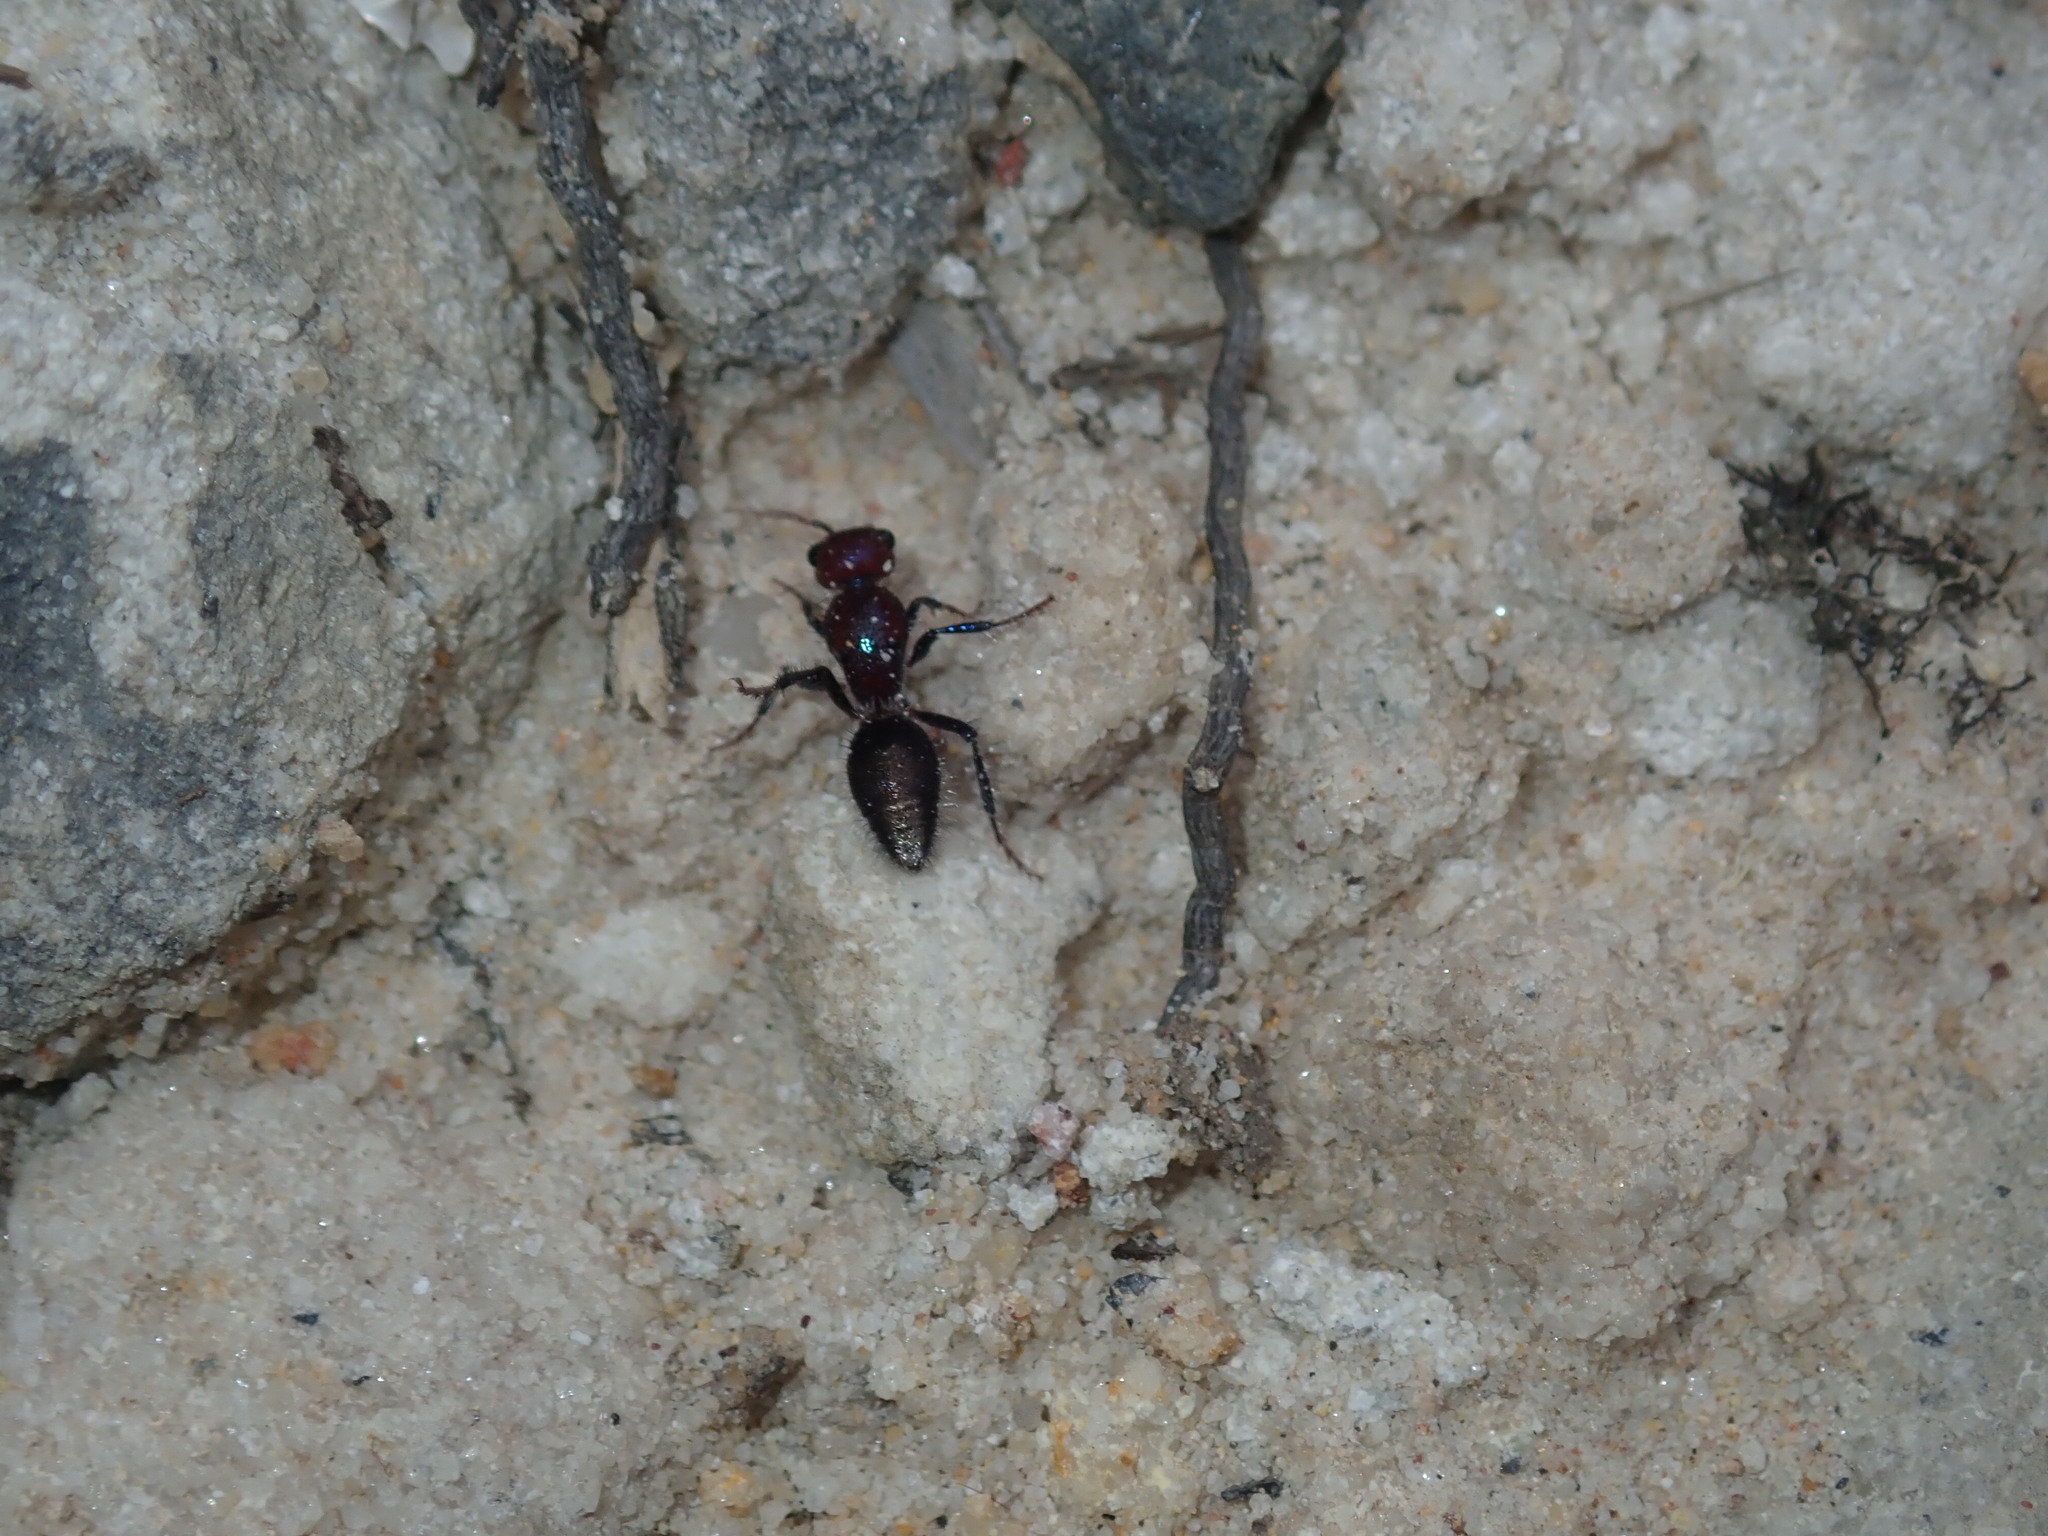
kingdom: Animalia
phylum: Arthropoda
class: Insecta
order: Hymenoptera
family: Mutillidae
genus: Ephutomorpha
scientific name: Ephutomorpha
